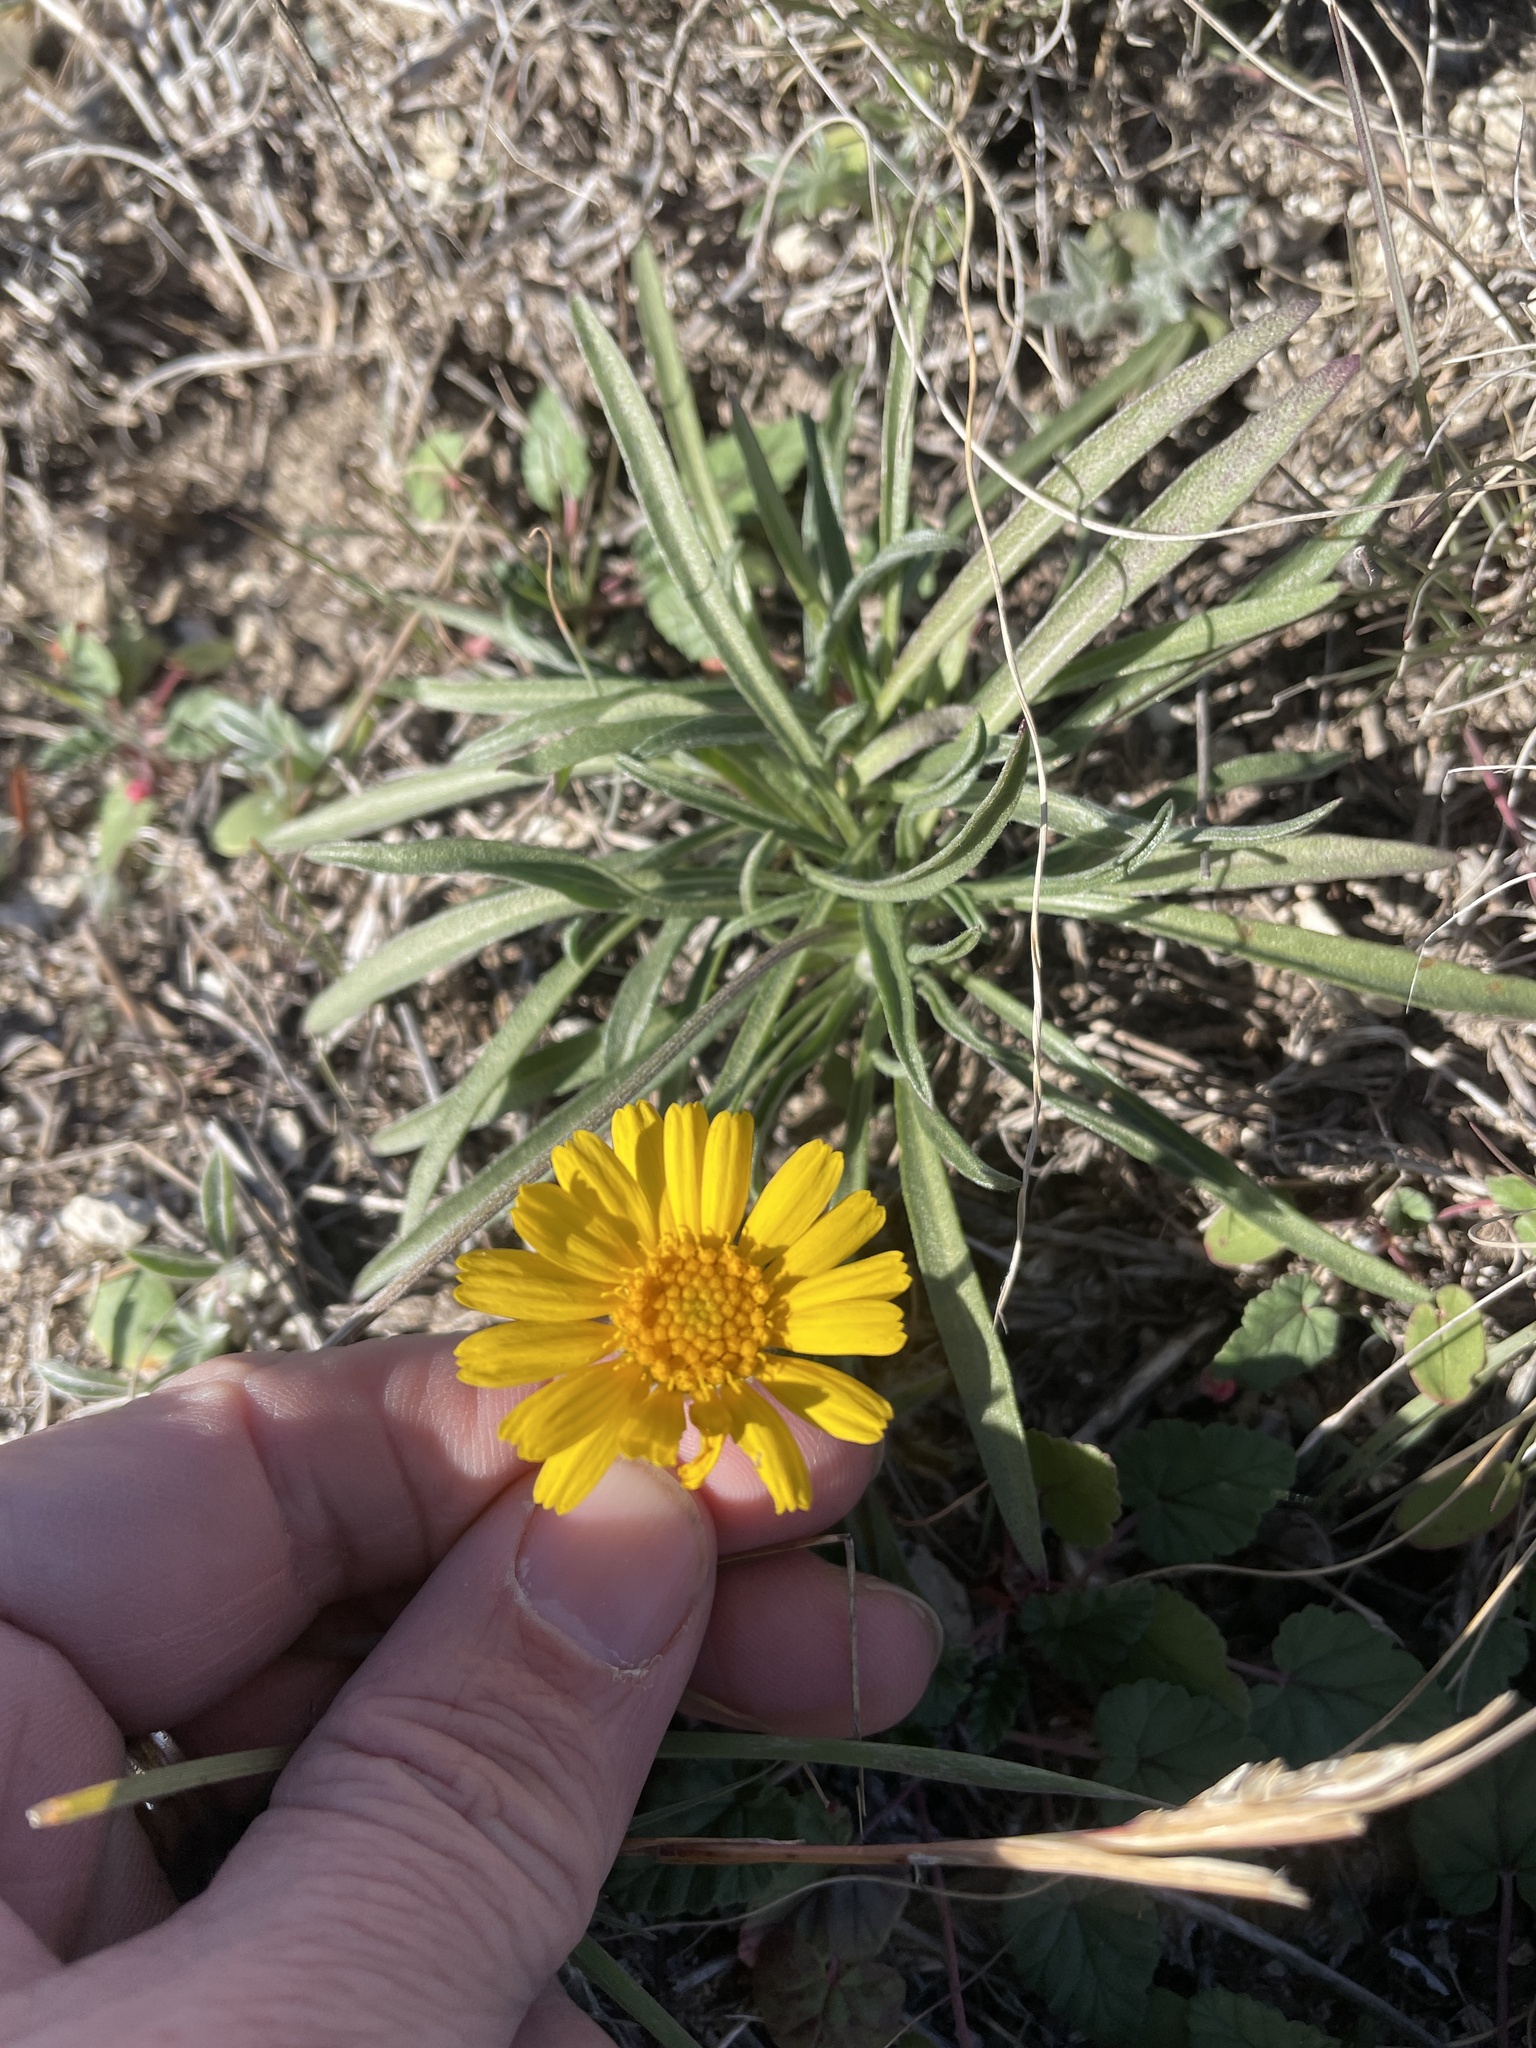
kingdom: Plantae
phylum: Tracheophyta
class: Magnoliopsida
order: Asterales
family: Asteraceae
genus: Tetraneuris
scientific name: Tetraneuris scaposa
